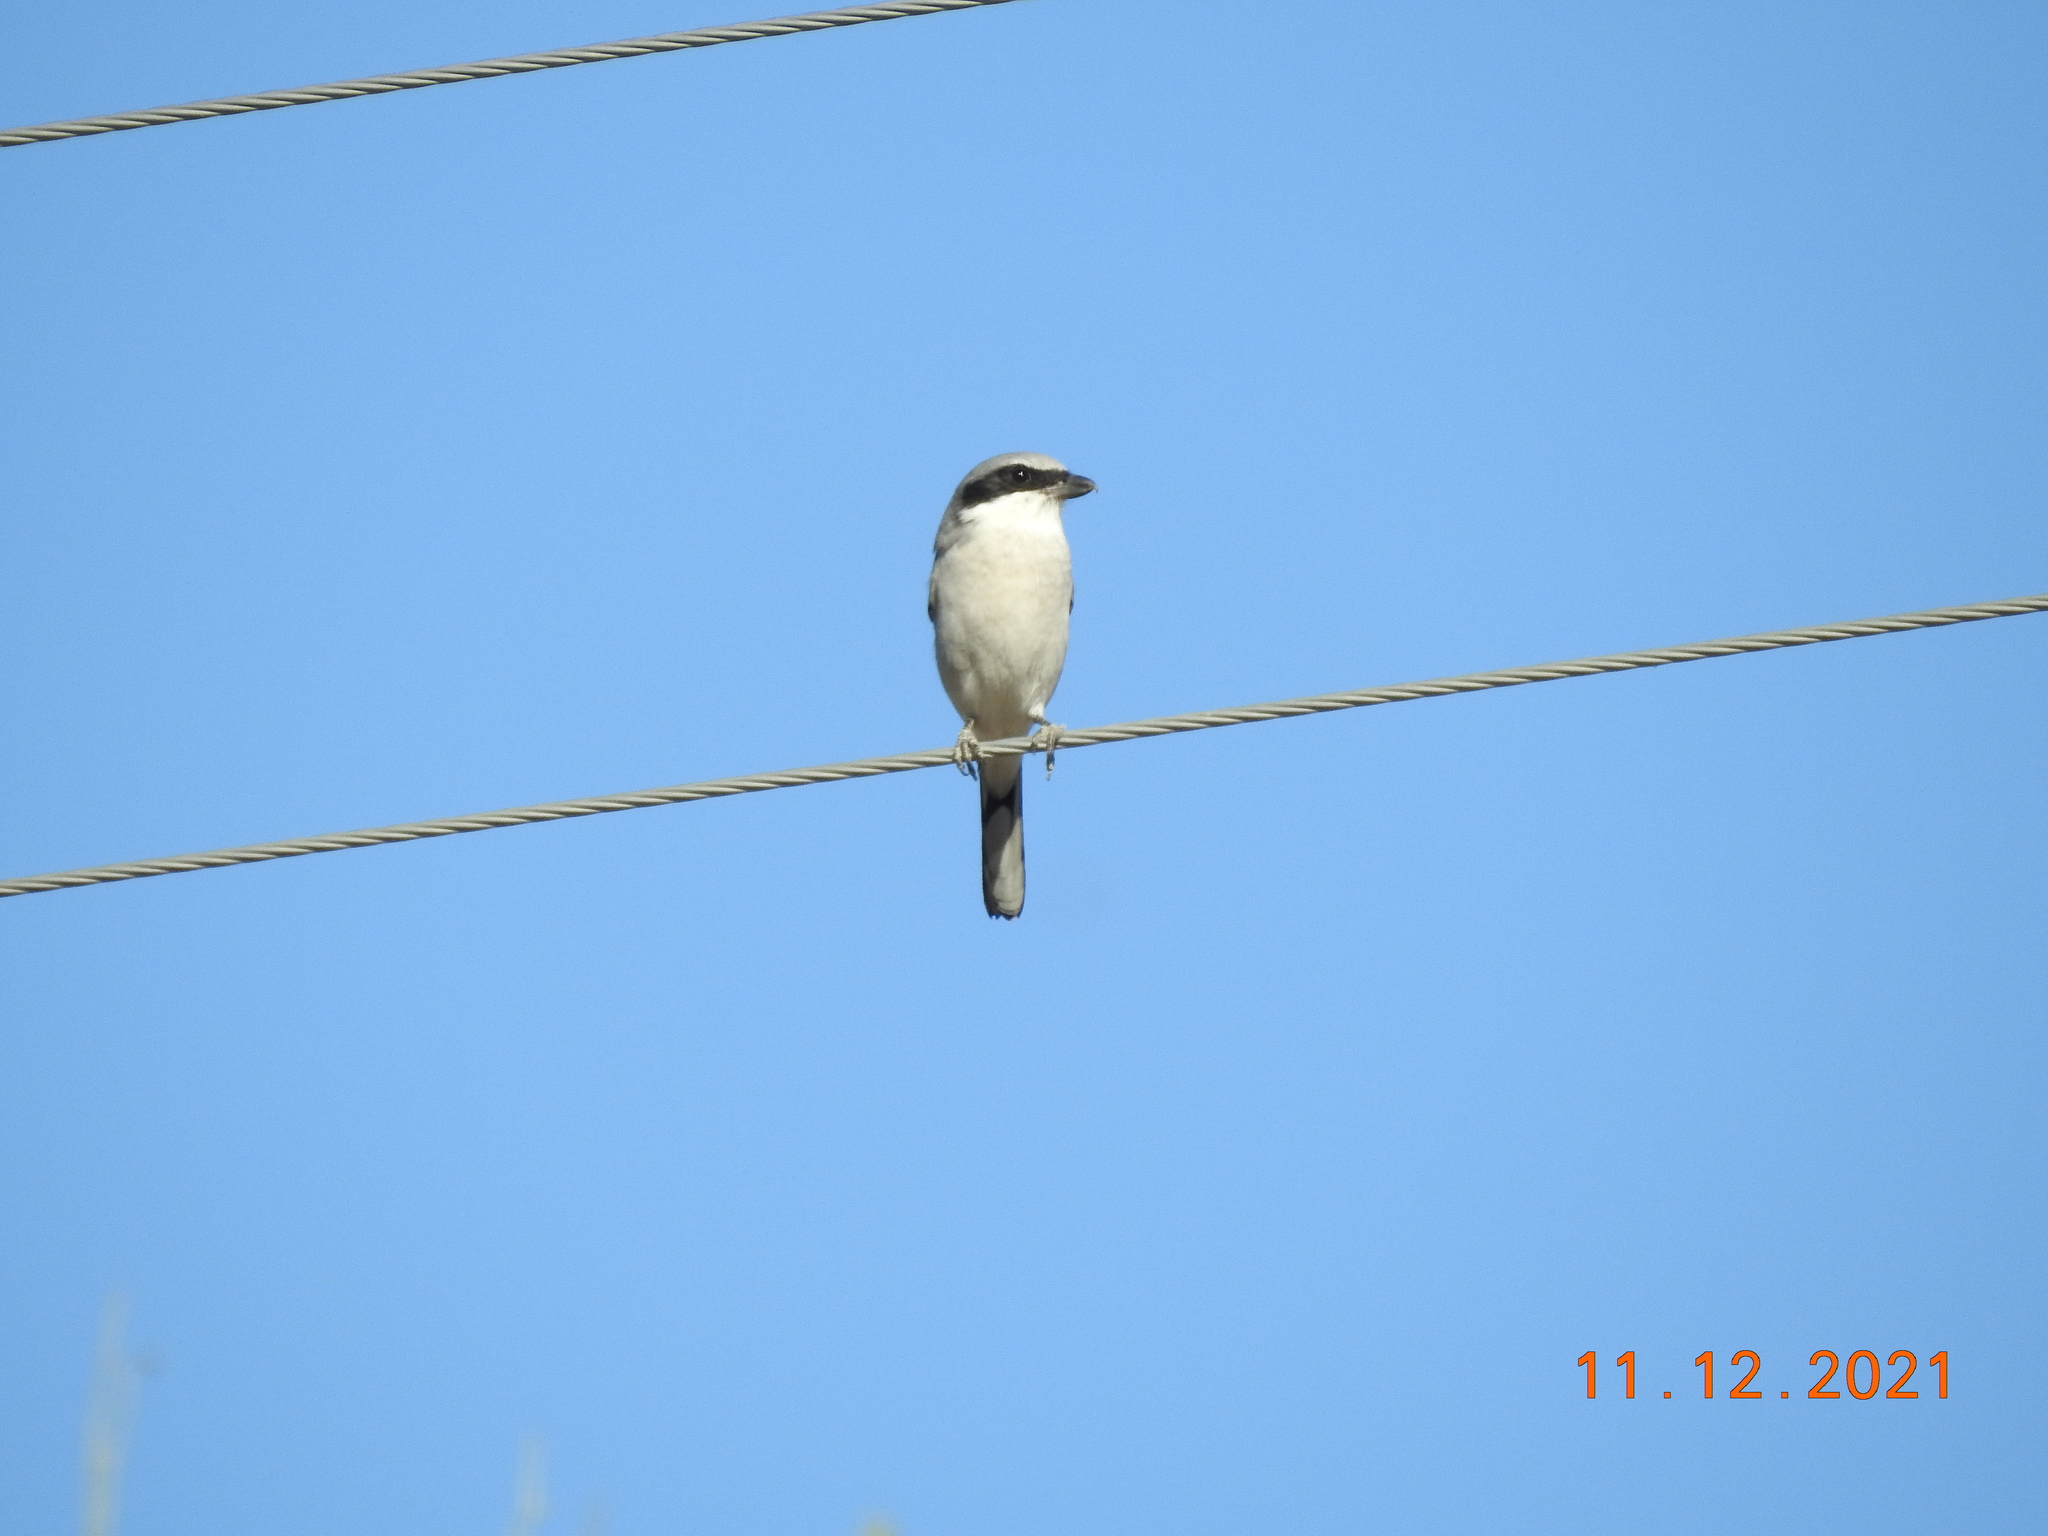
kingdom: Animalia
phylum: Chordata
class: Aves
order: Passeriformes
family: Laniidae
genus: Lanius
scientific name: Lanius ludovicianus
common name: Loggerhead shrike
